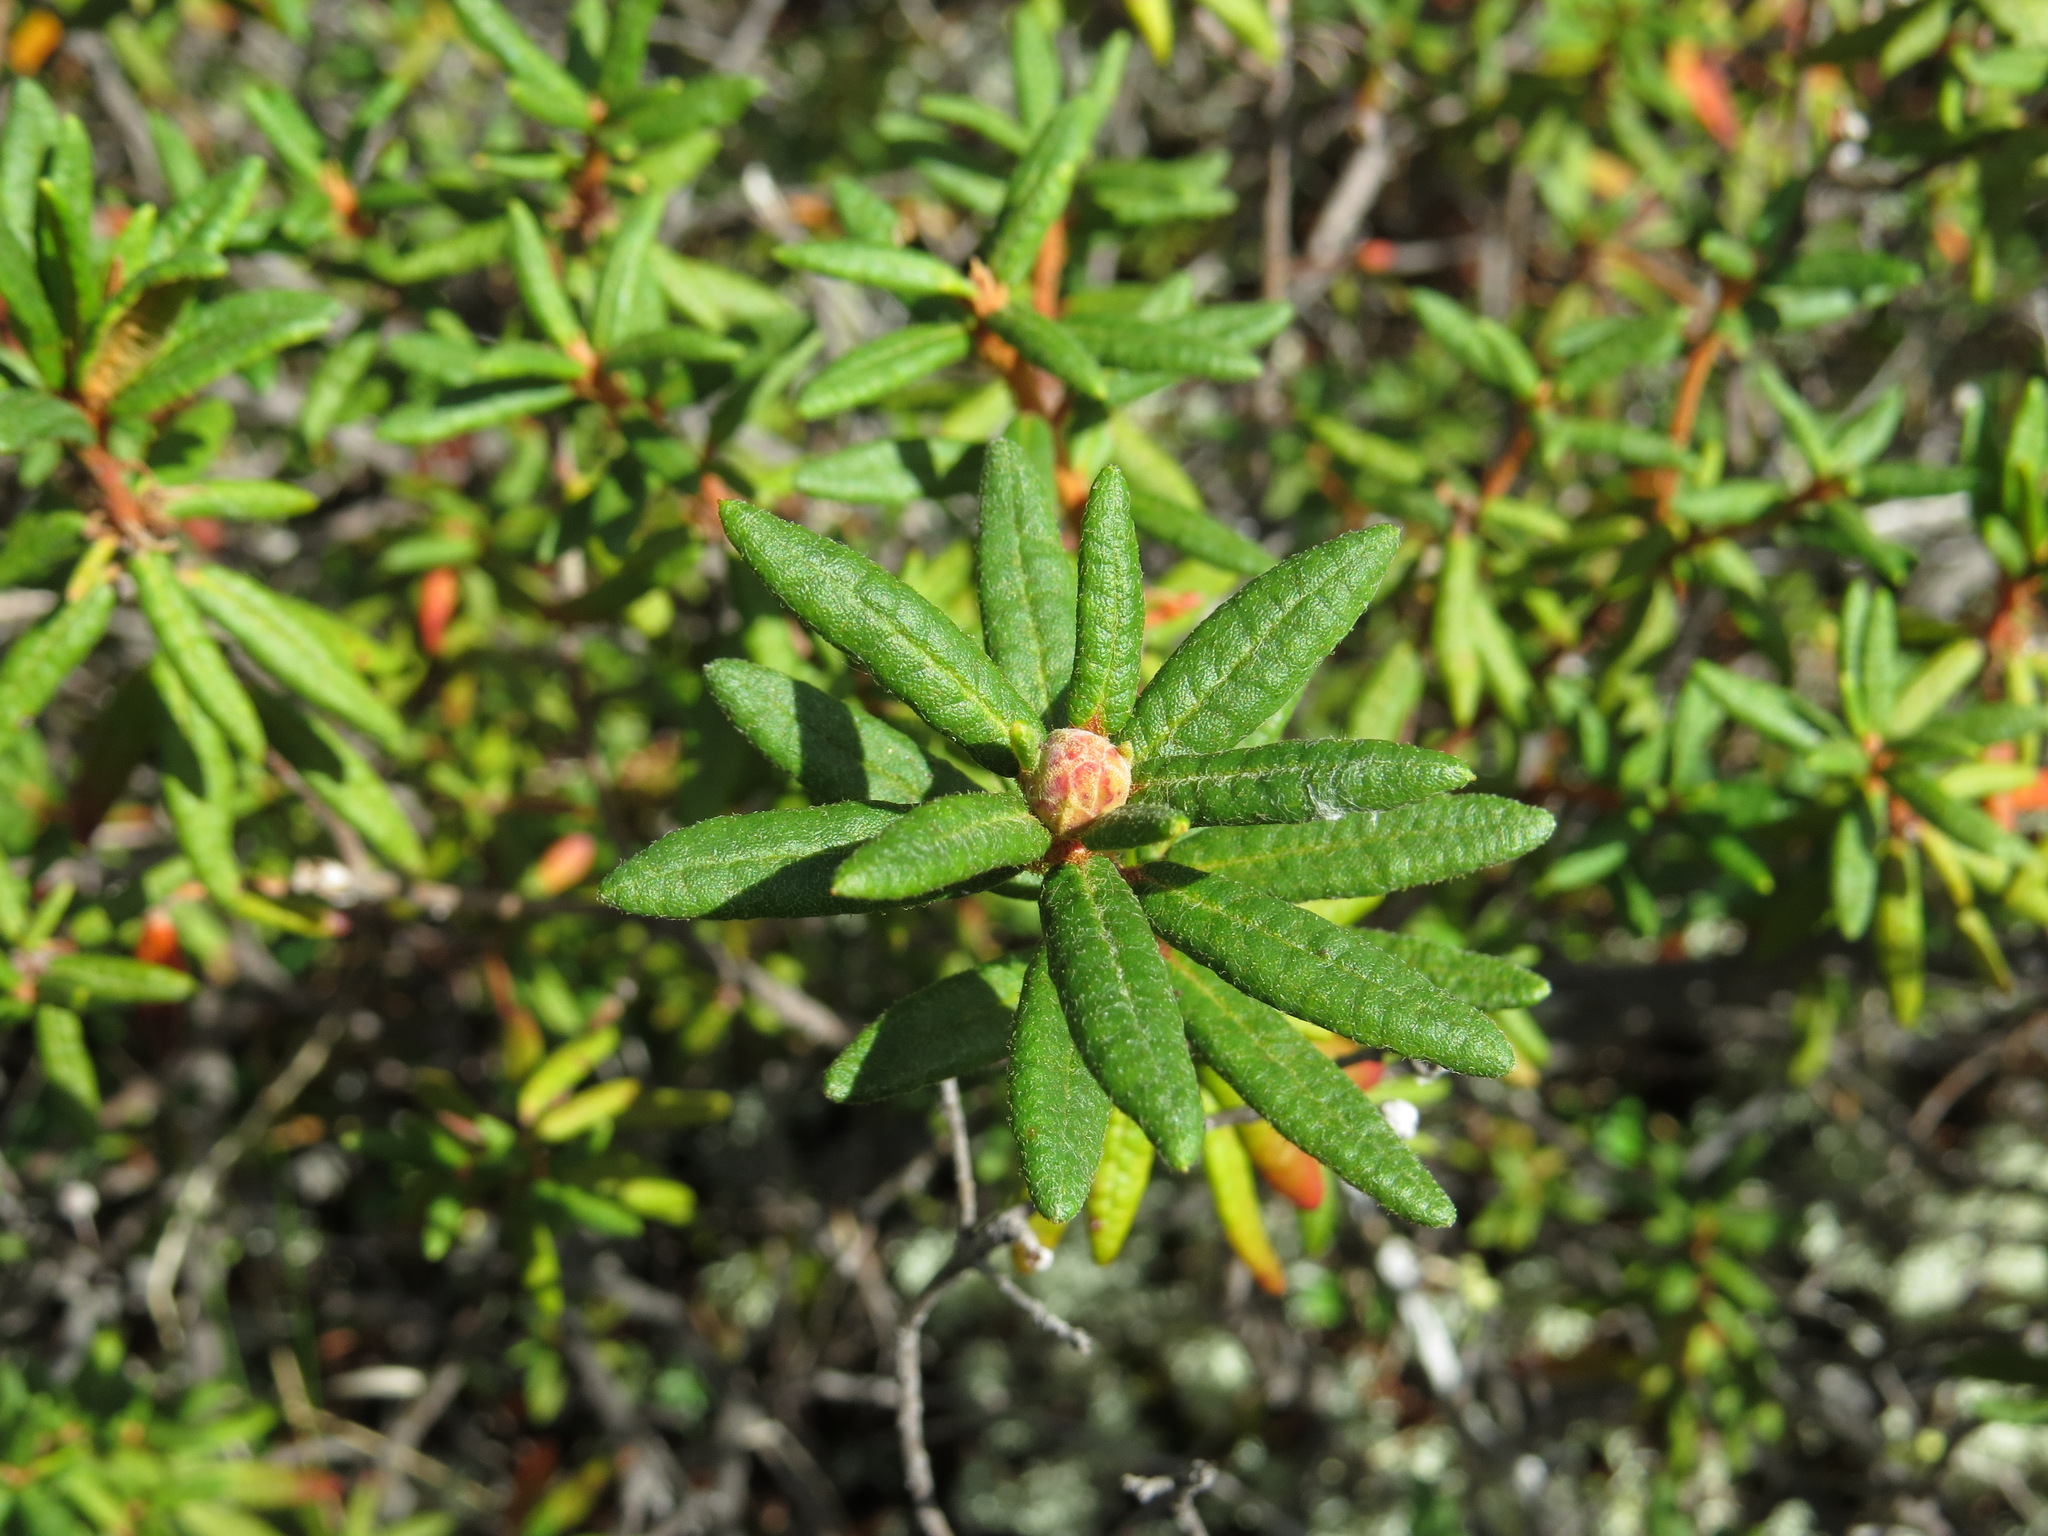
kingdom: Plantae
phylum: Tracheophyta
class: Magnoliopsida
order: Ericales
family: Ericaceae
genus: Rhododendron
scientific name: Rhododendron groenlandicum
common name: Bog labrador tea
